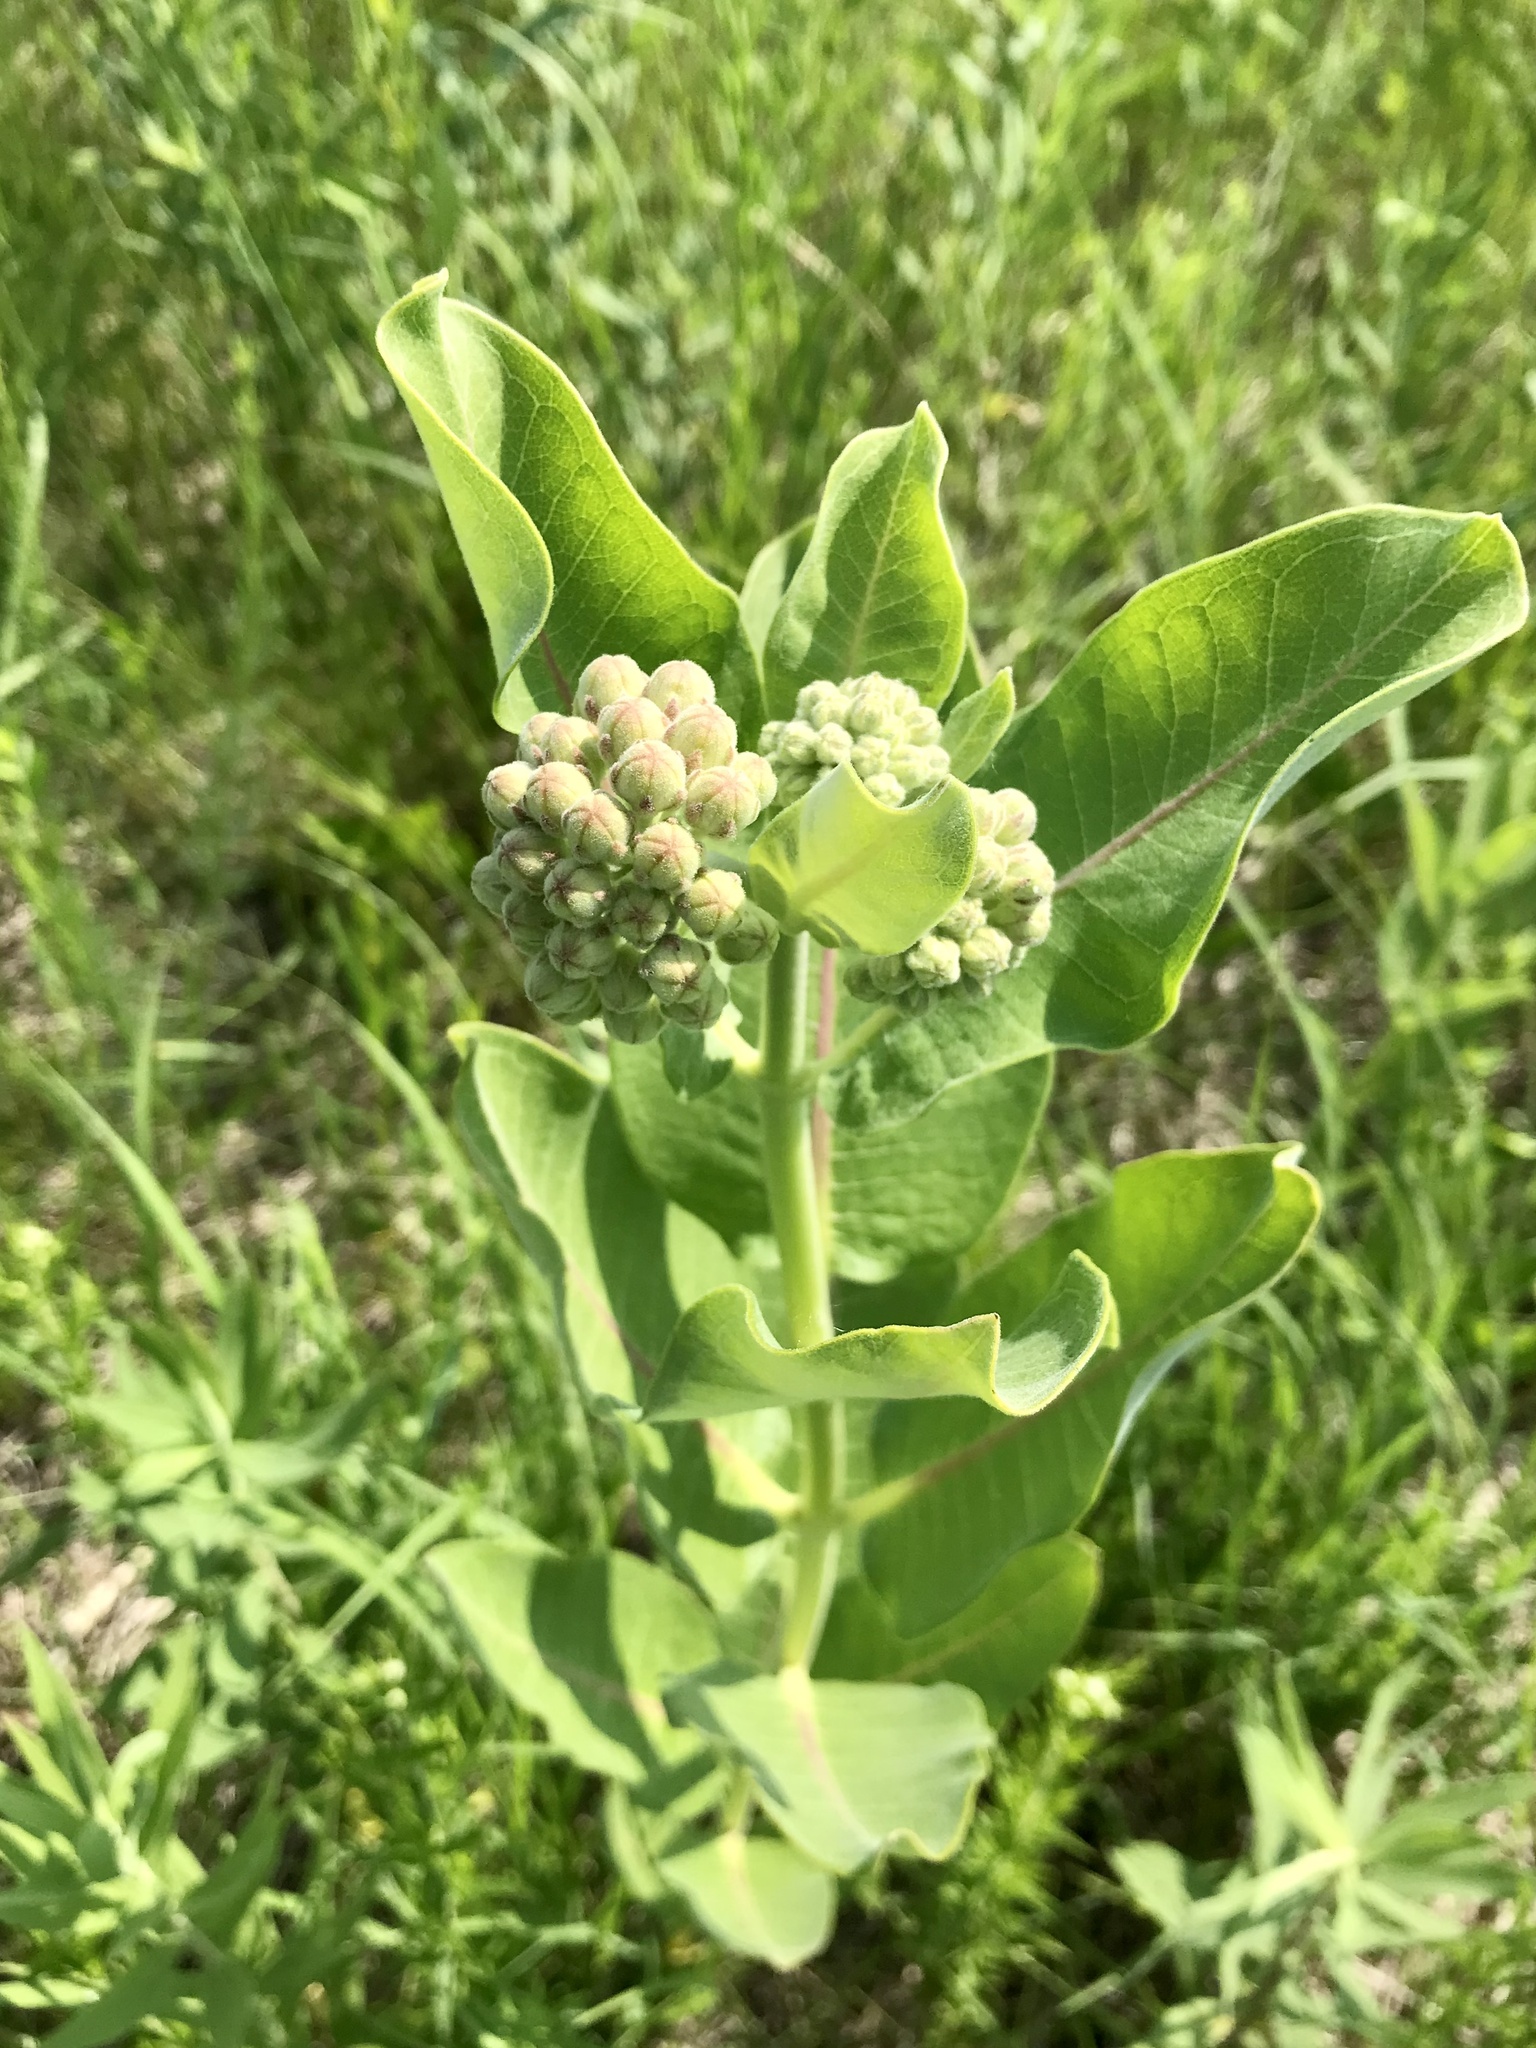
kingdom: Plantae
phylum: Tracheophyta
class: Magnoliopsida
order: Gentianales
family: Apocynaceae
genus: Asclepias
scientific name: Asclepias syriaca
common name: Common milkweed
